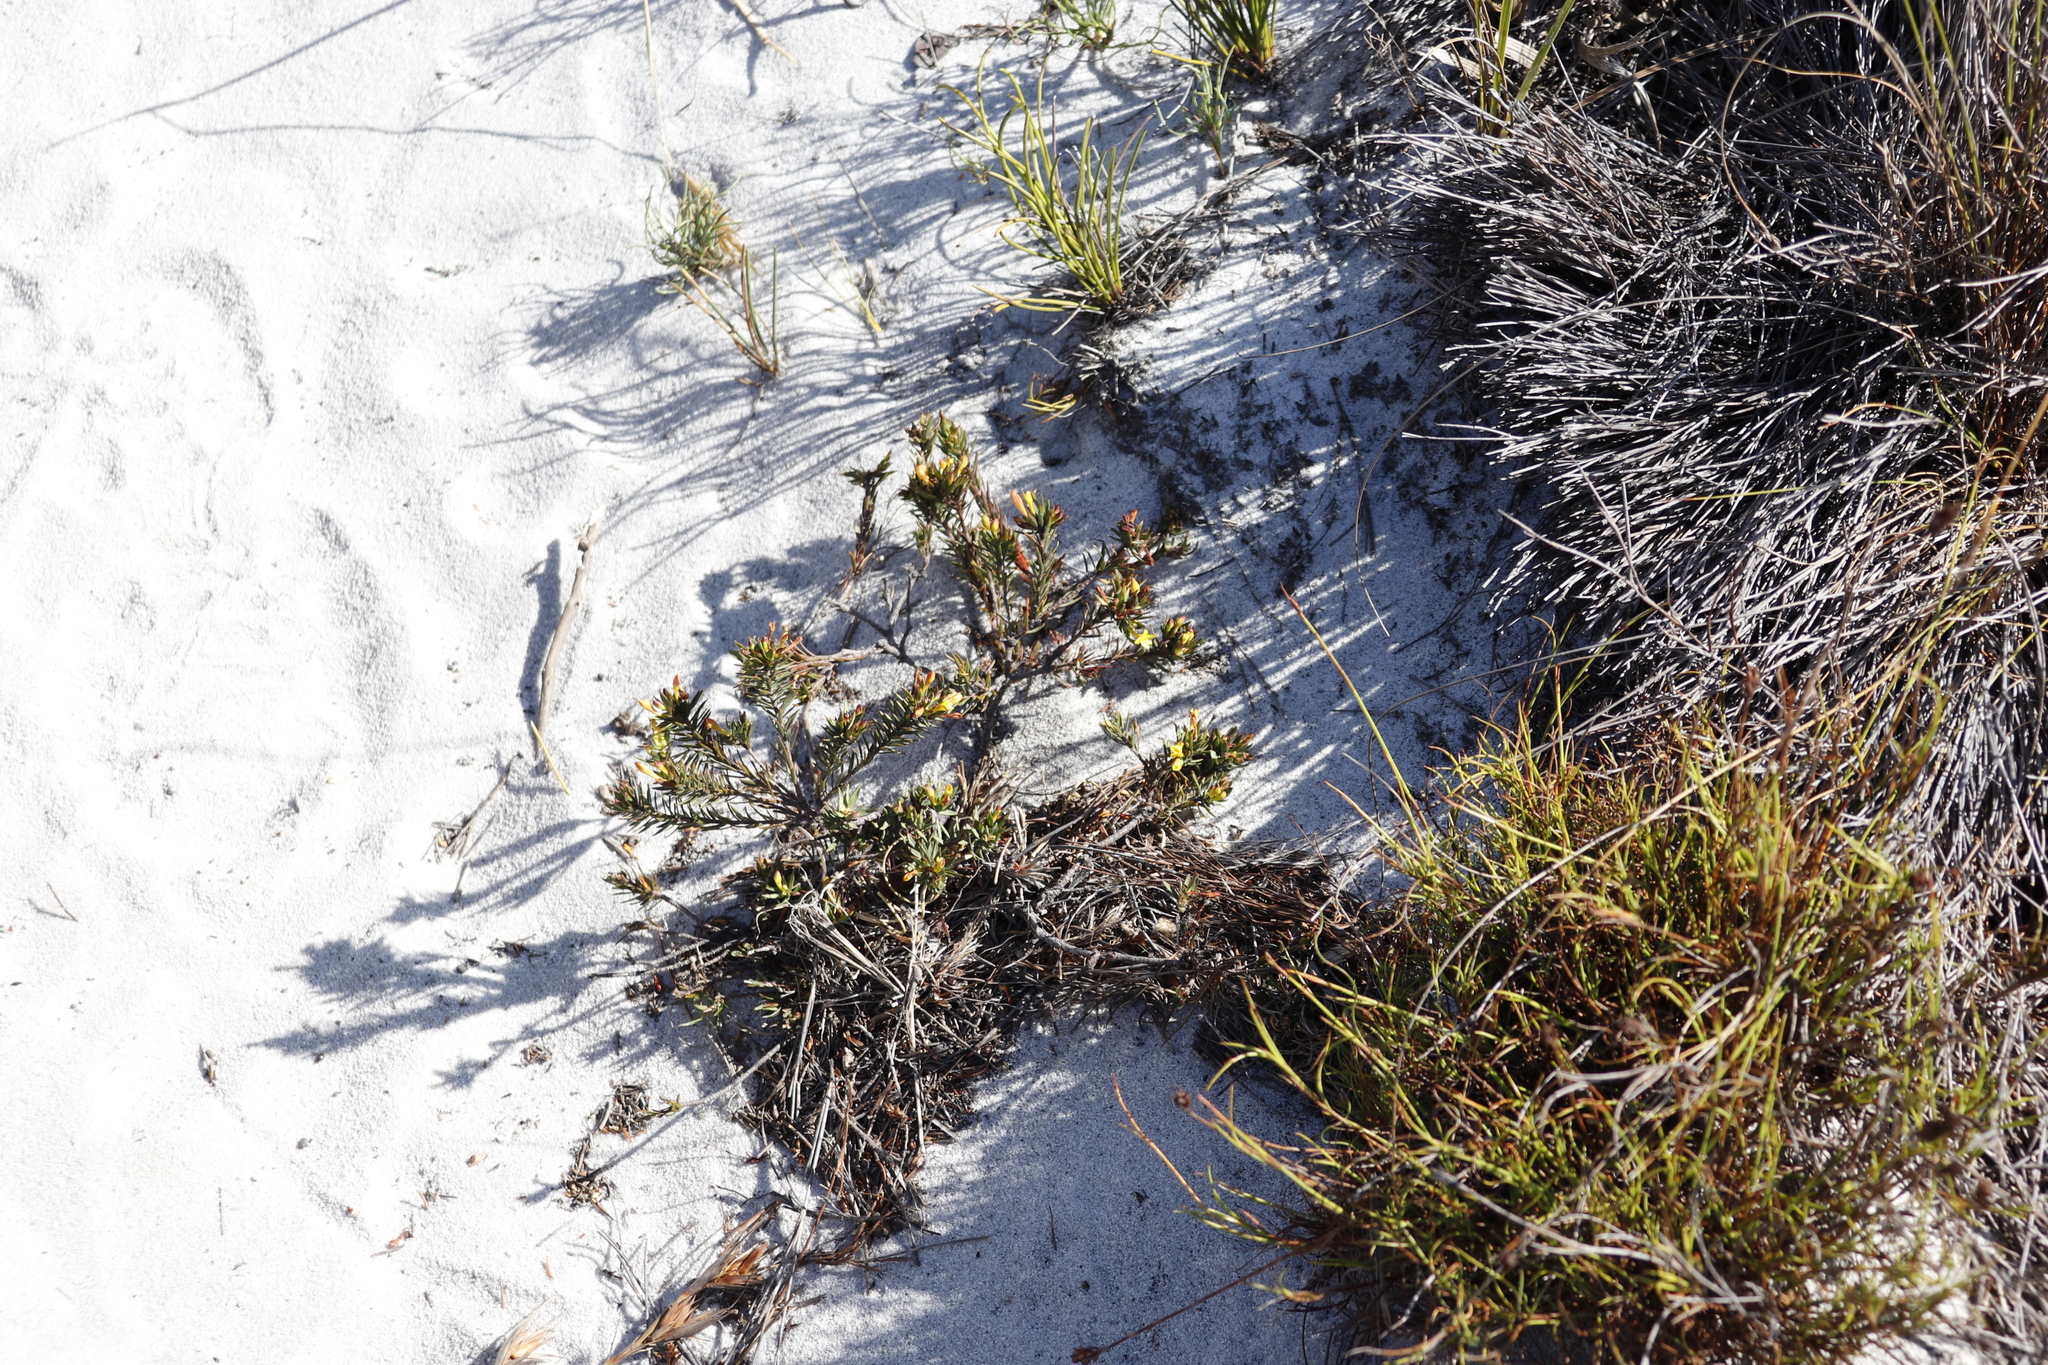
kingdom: Plantae
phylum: Tracheophyta
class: Magnoliopsida
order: Malvales
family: Thymelaeaceae
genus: Gnidia
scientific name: Gnidia juniperifolia
